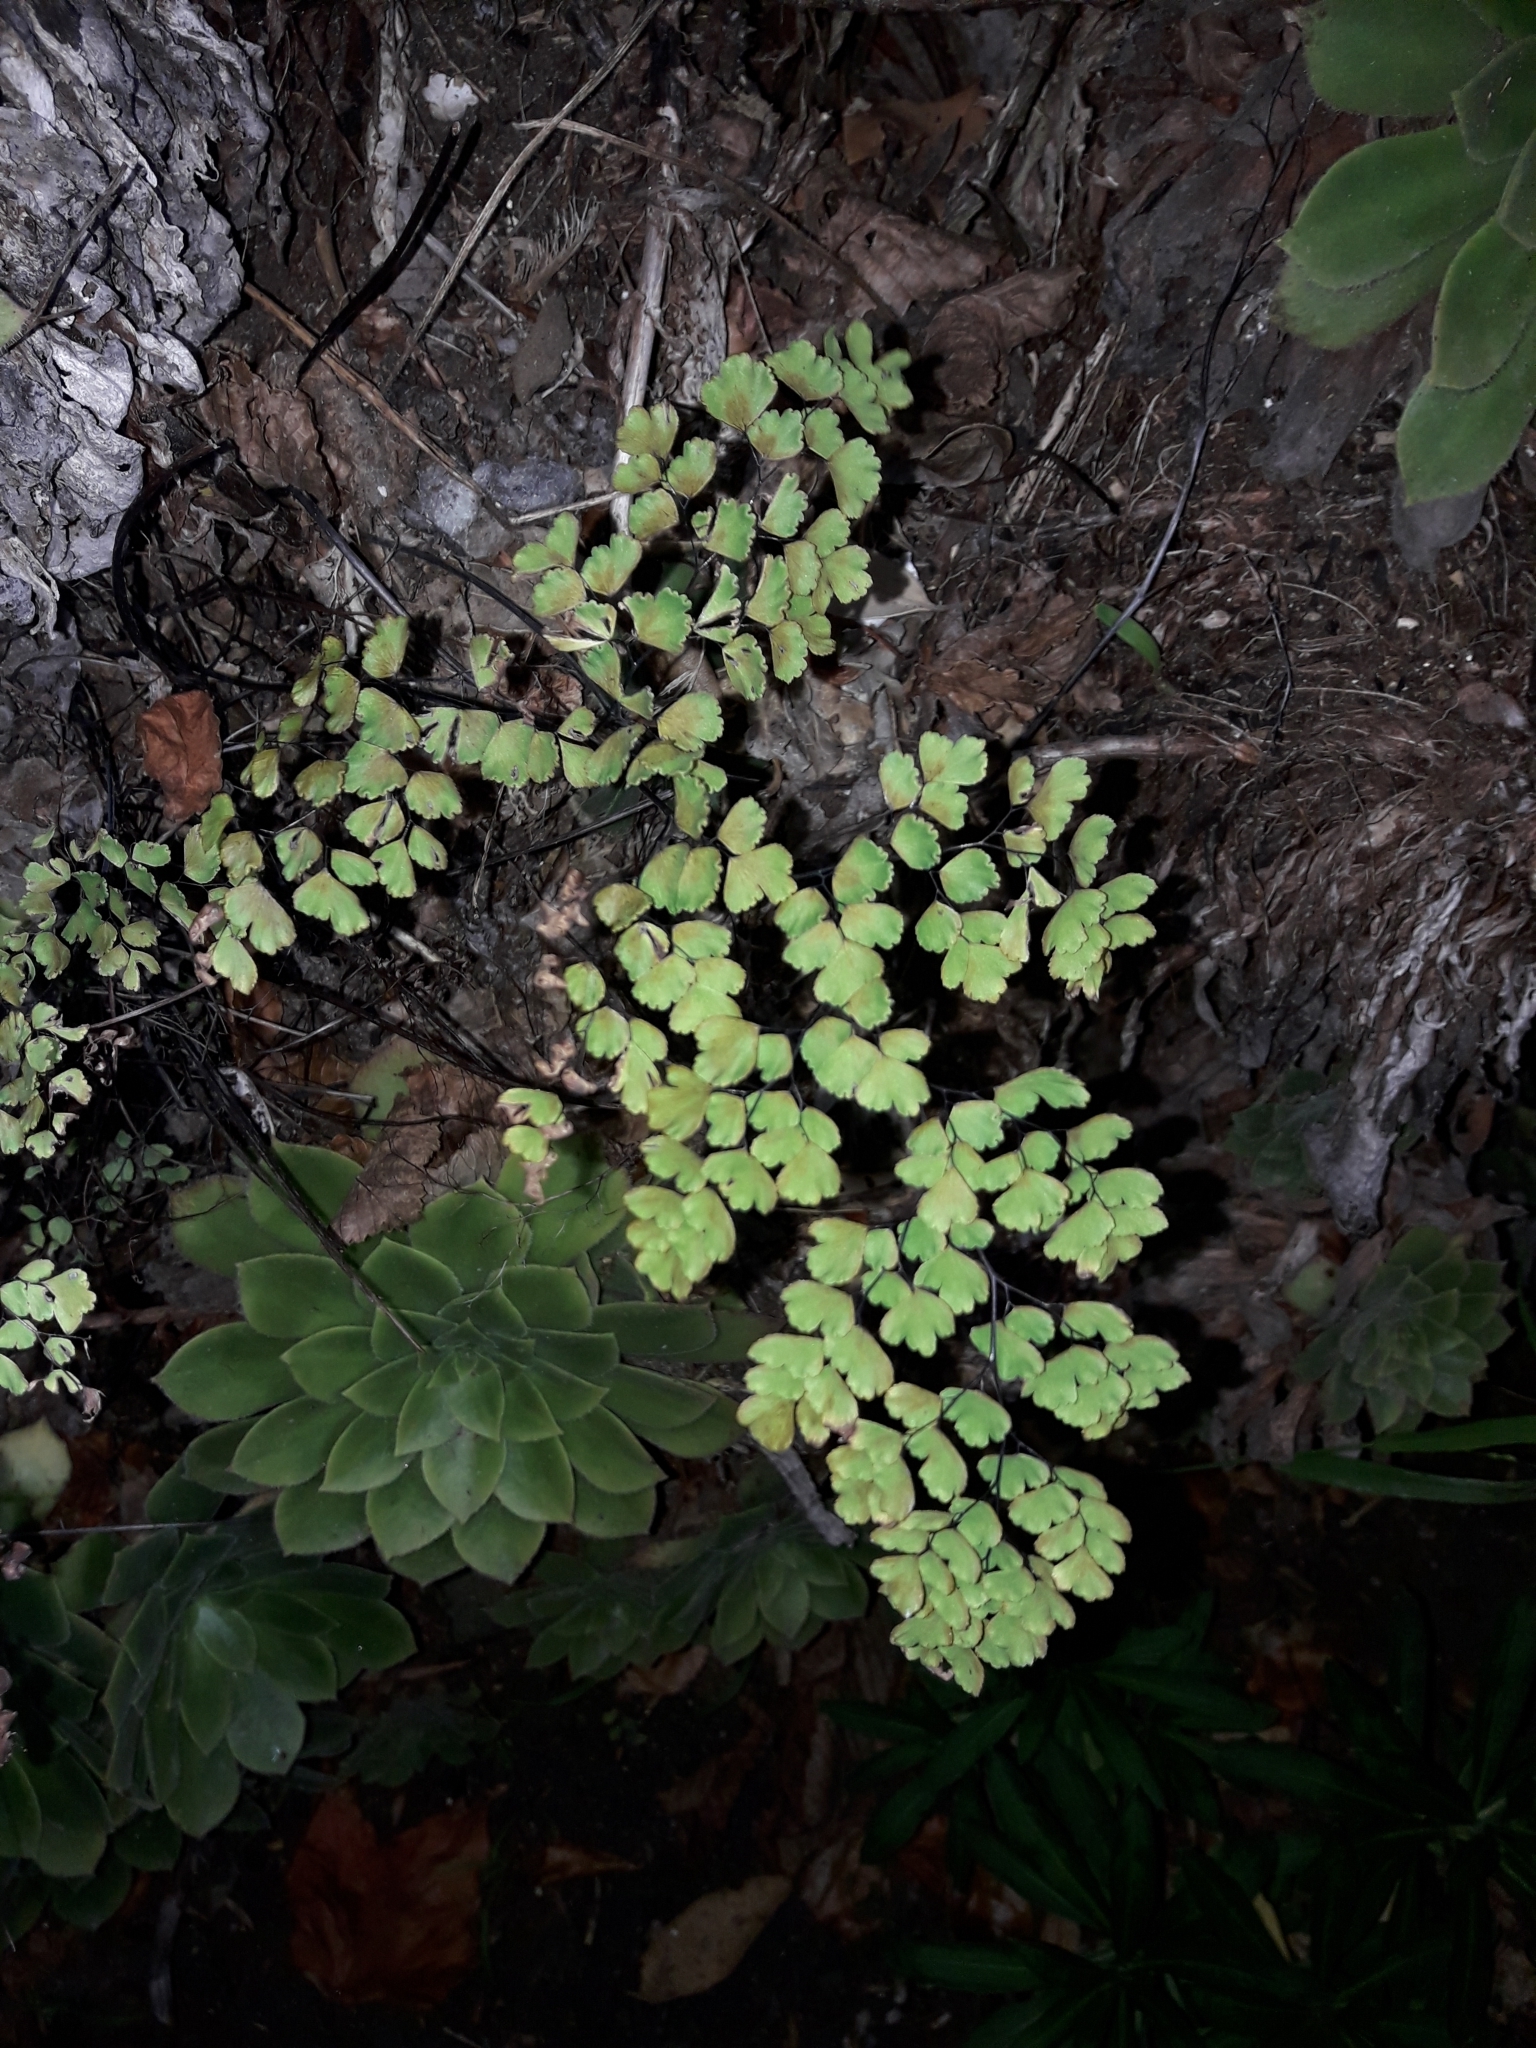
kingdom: Plantae
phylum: Tracheophyta
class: Polypodiopsida
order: Polypodiales
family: Pteridaceae
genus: Adiantum
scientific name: Adiantum raddianum
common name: Delta maidenhair fern
